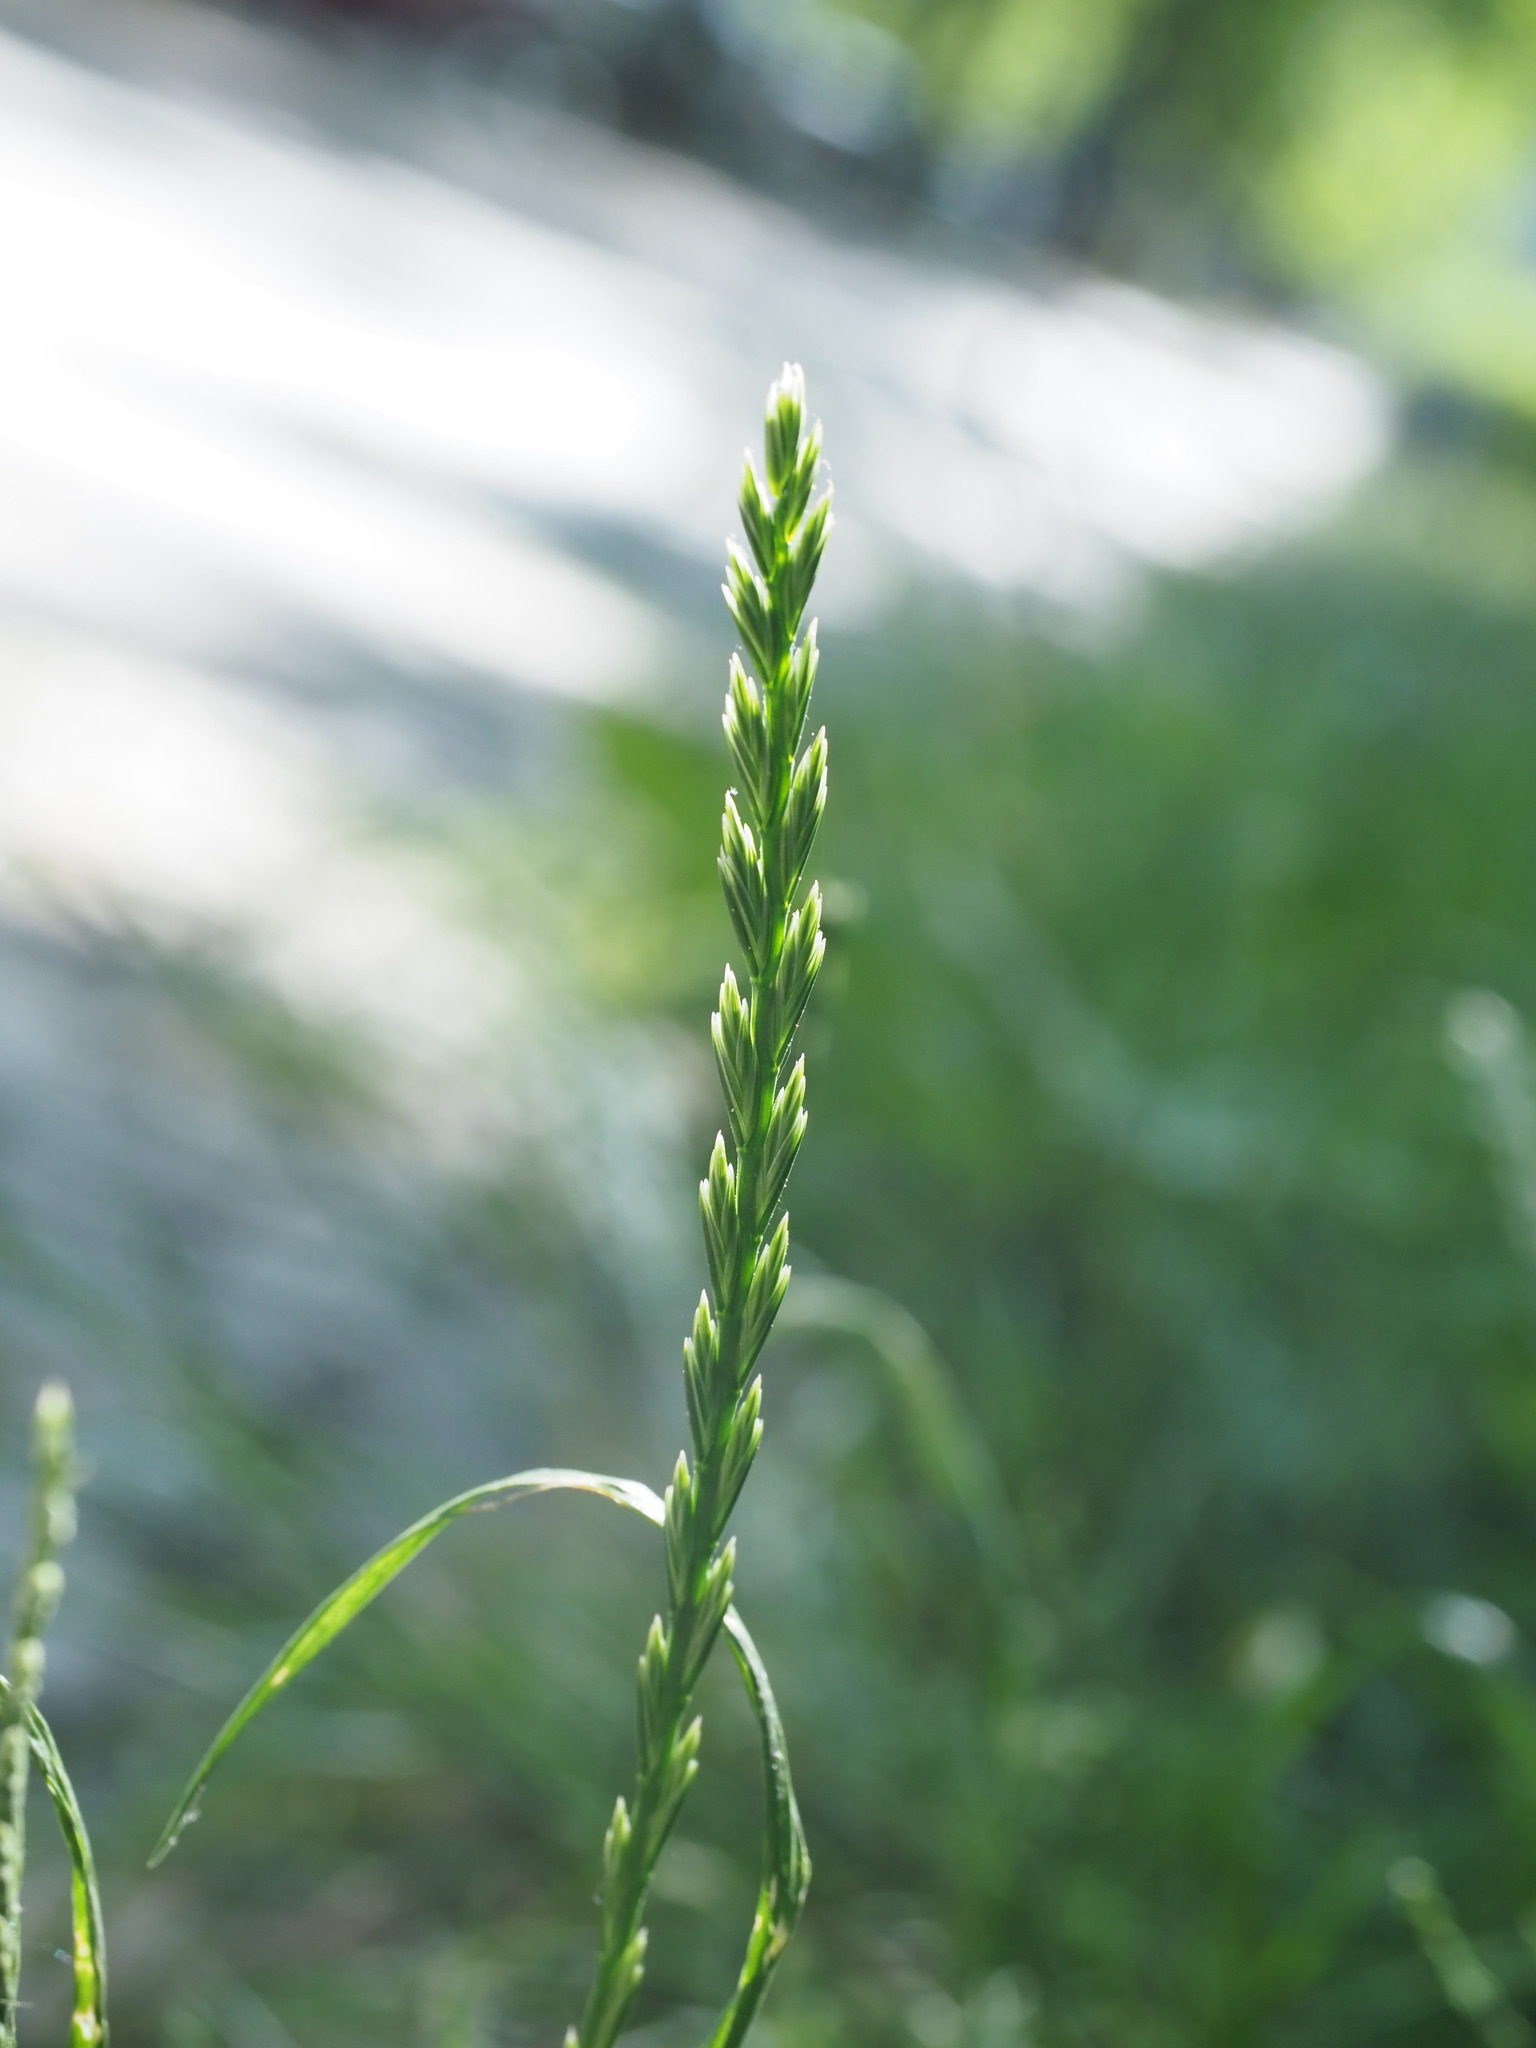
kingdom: Plantae
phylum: Tracheophyta
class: Liliopsida
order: Poales
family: Poaceae
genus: Lolium
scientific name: Lolium perenne
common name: Perennial ryegrass
